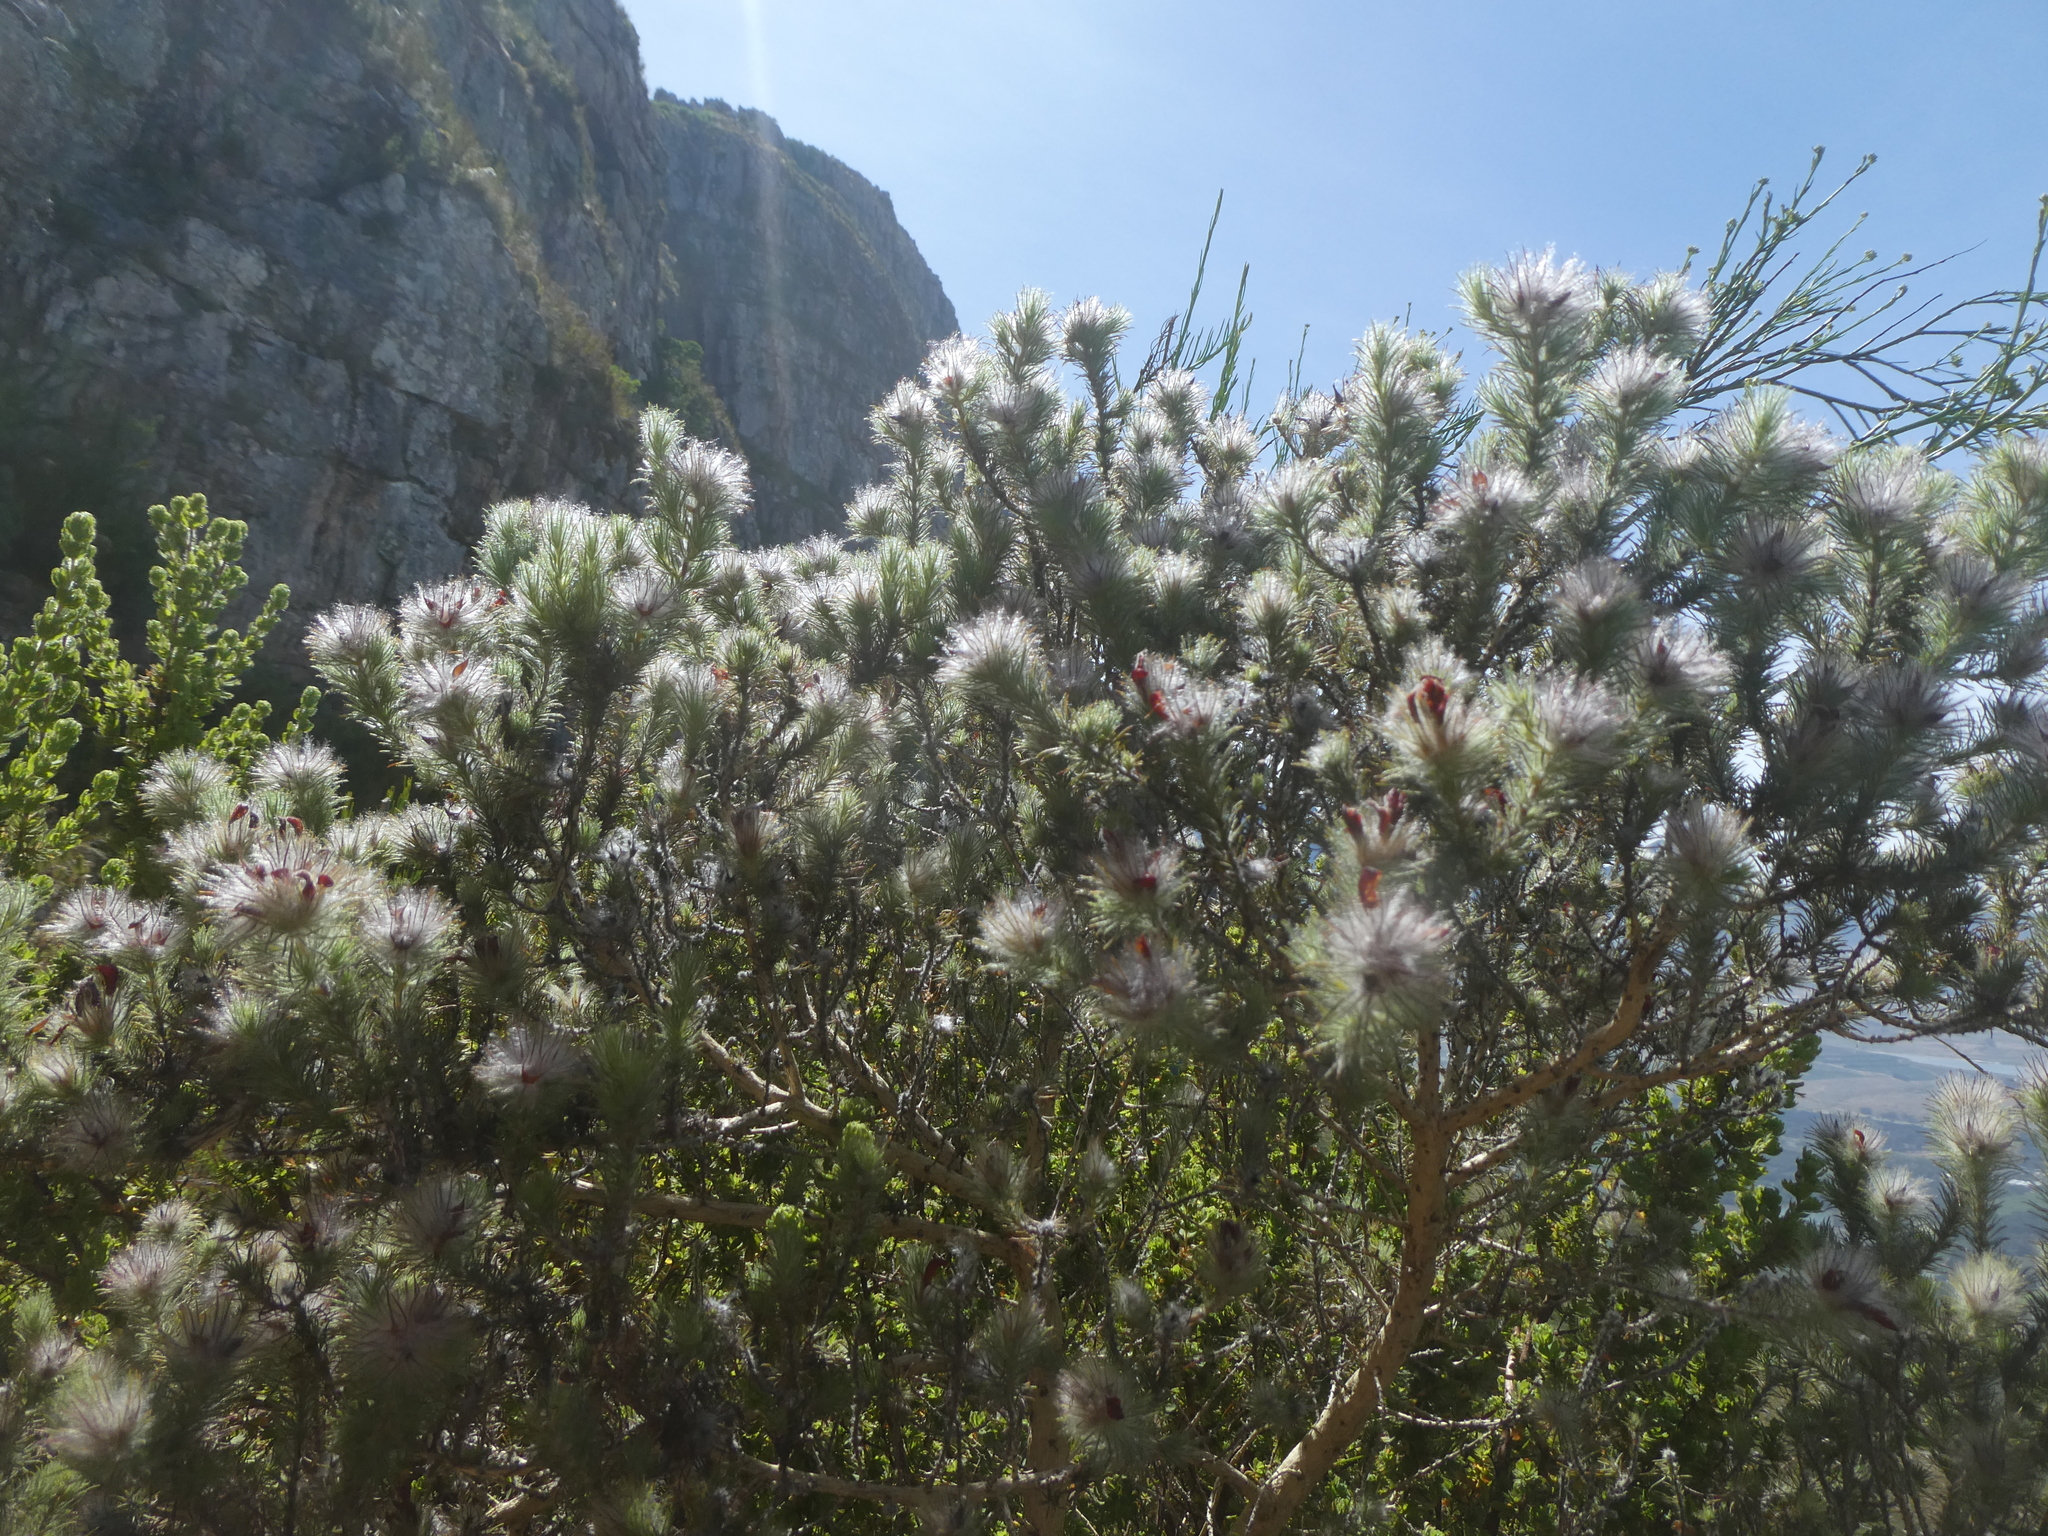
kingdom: Plantae
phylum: Tracheophyta
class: Magnoliopsida
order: Rosales
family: Rhamnaceae
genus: Phylica
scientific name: Phylica pubescens
